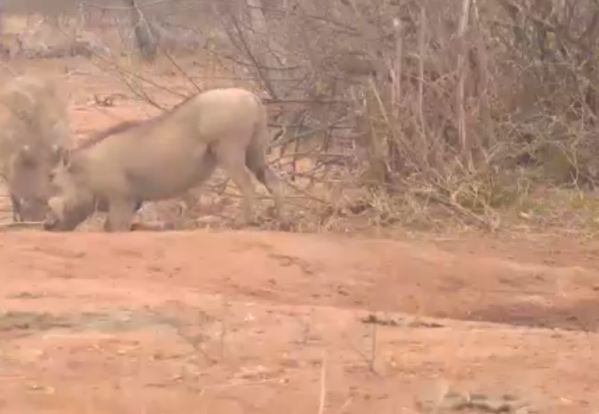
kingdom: Animalia
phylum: Chordata
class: Mammalia
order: Artiodactyla
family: Suidae
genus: Phacochoerus
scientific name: Phacochoerus africanus
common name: Common warthog
